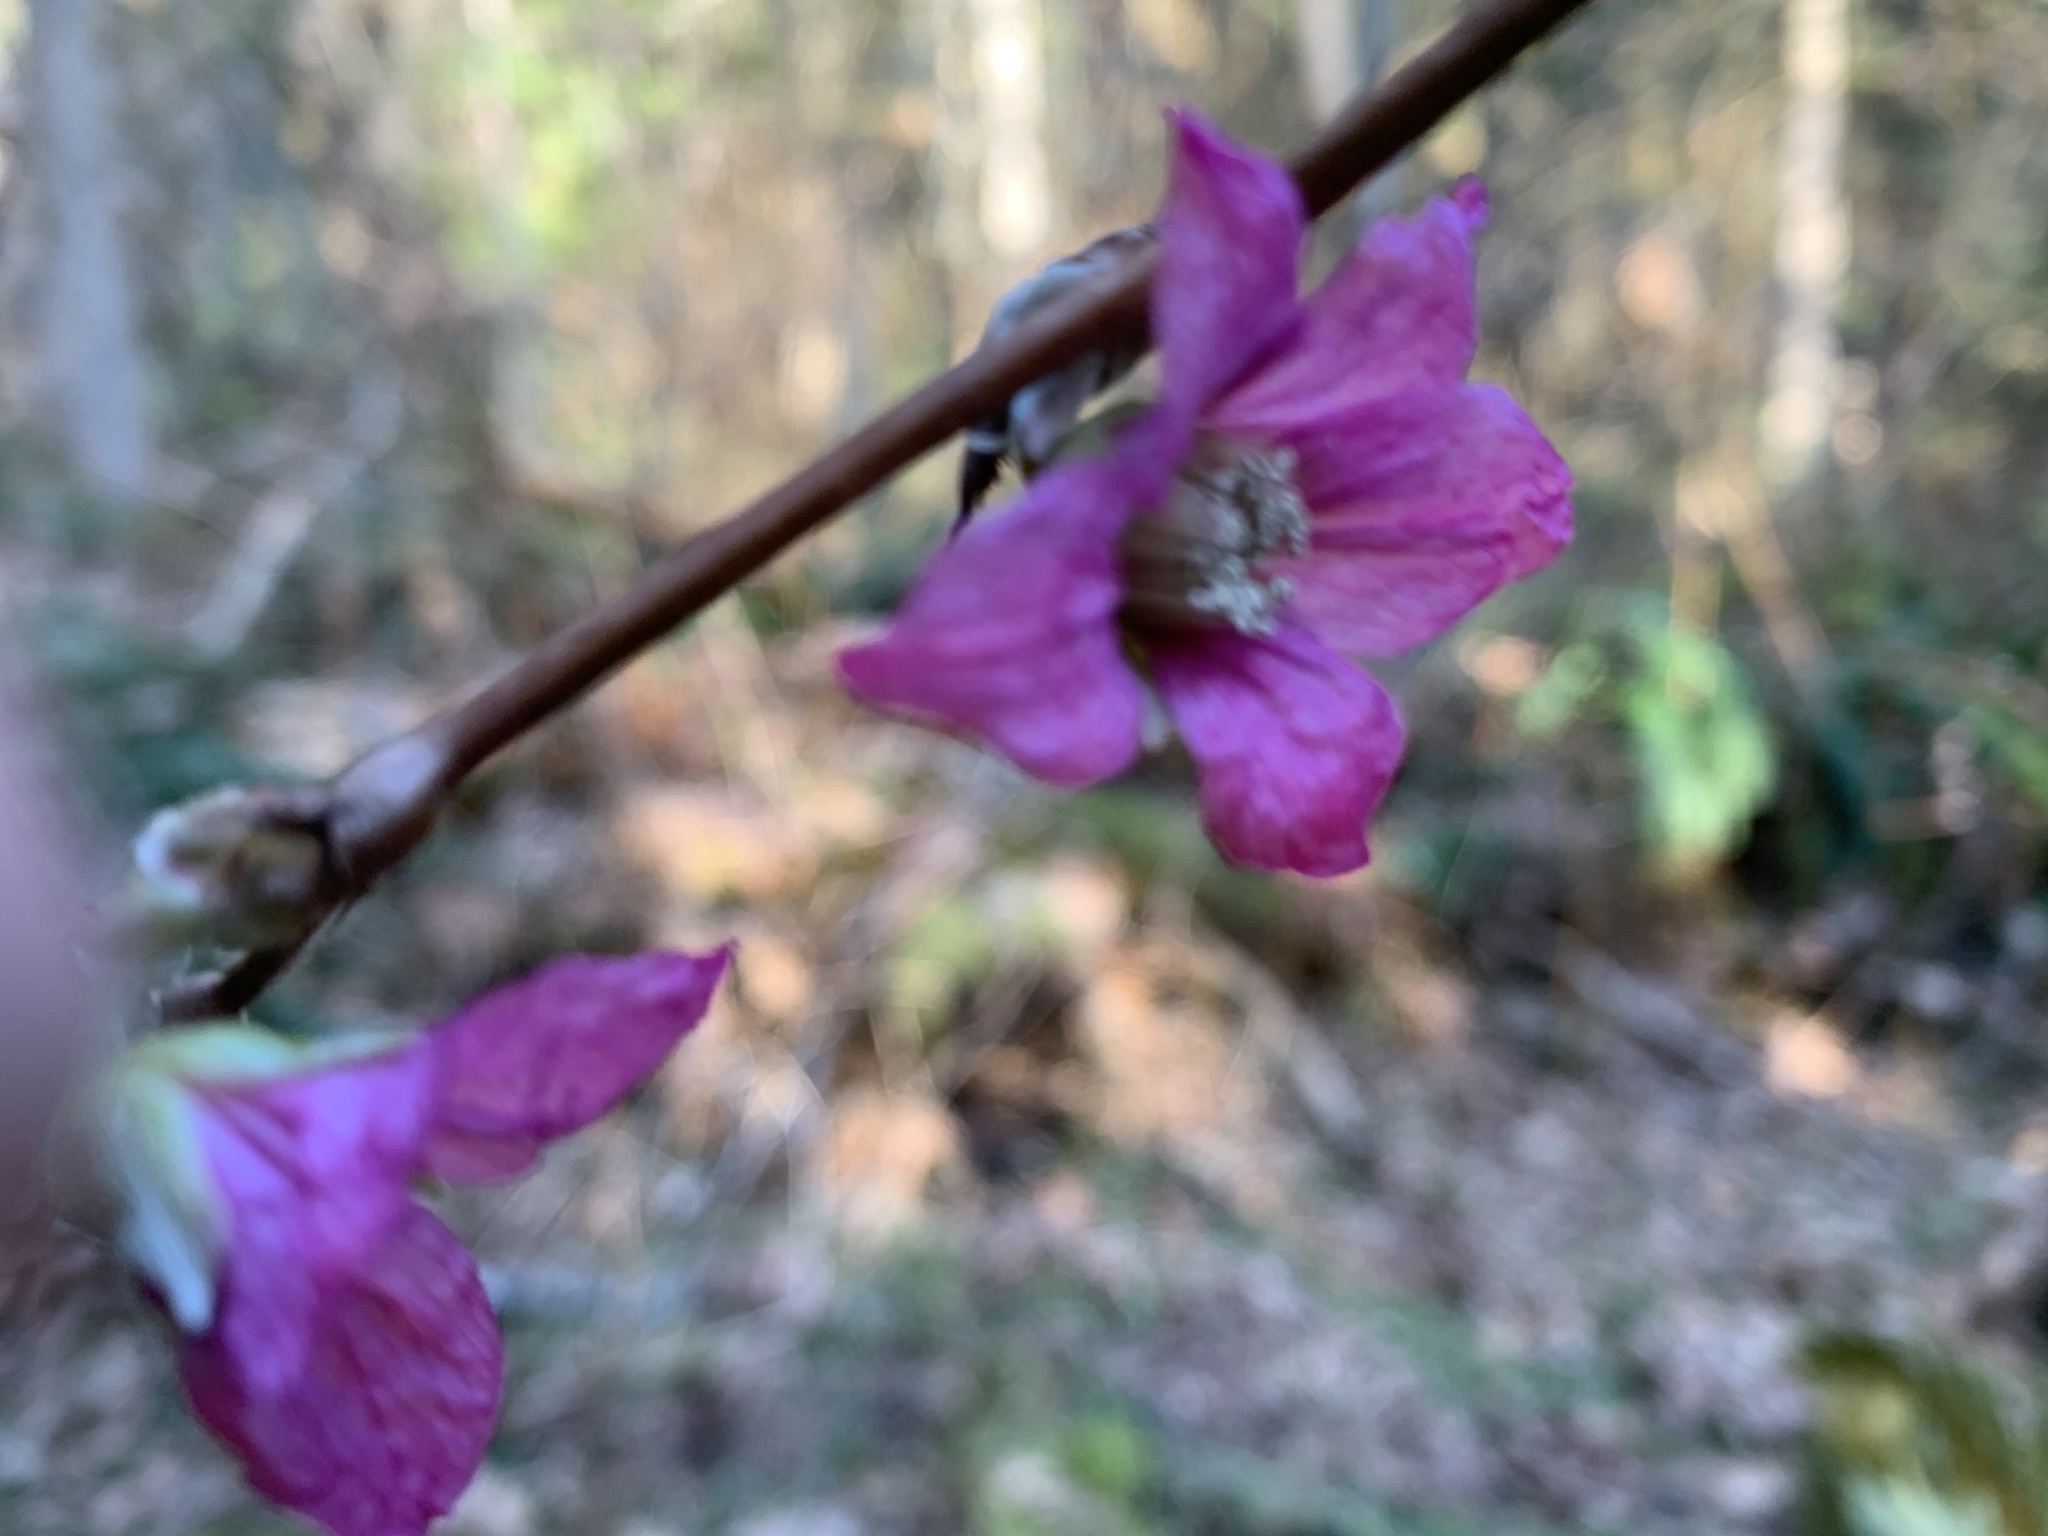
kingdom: Plantae
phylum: Tracheophyta
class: Magnoliopsida
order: Rosales
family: Rosaceae
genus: Rubus
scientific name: Rubus spectabilis
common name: Salmonberry
